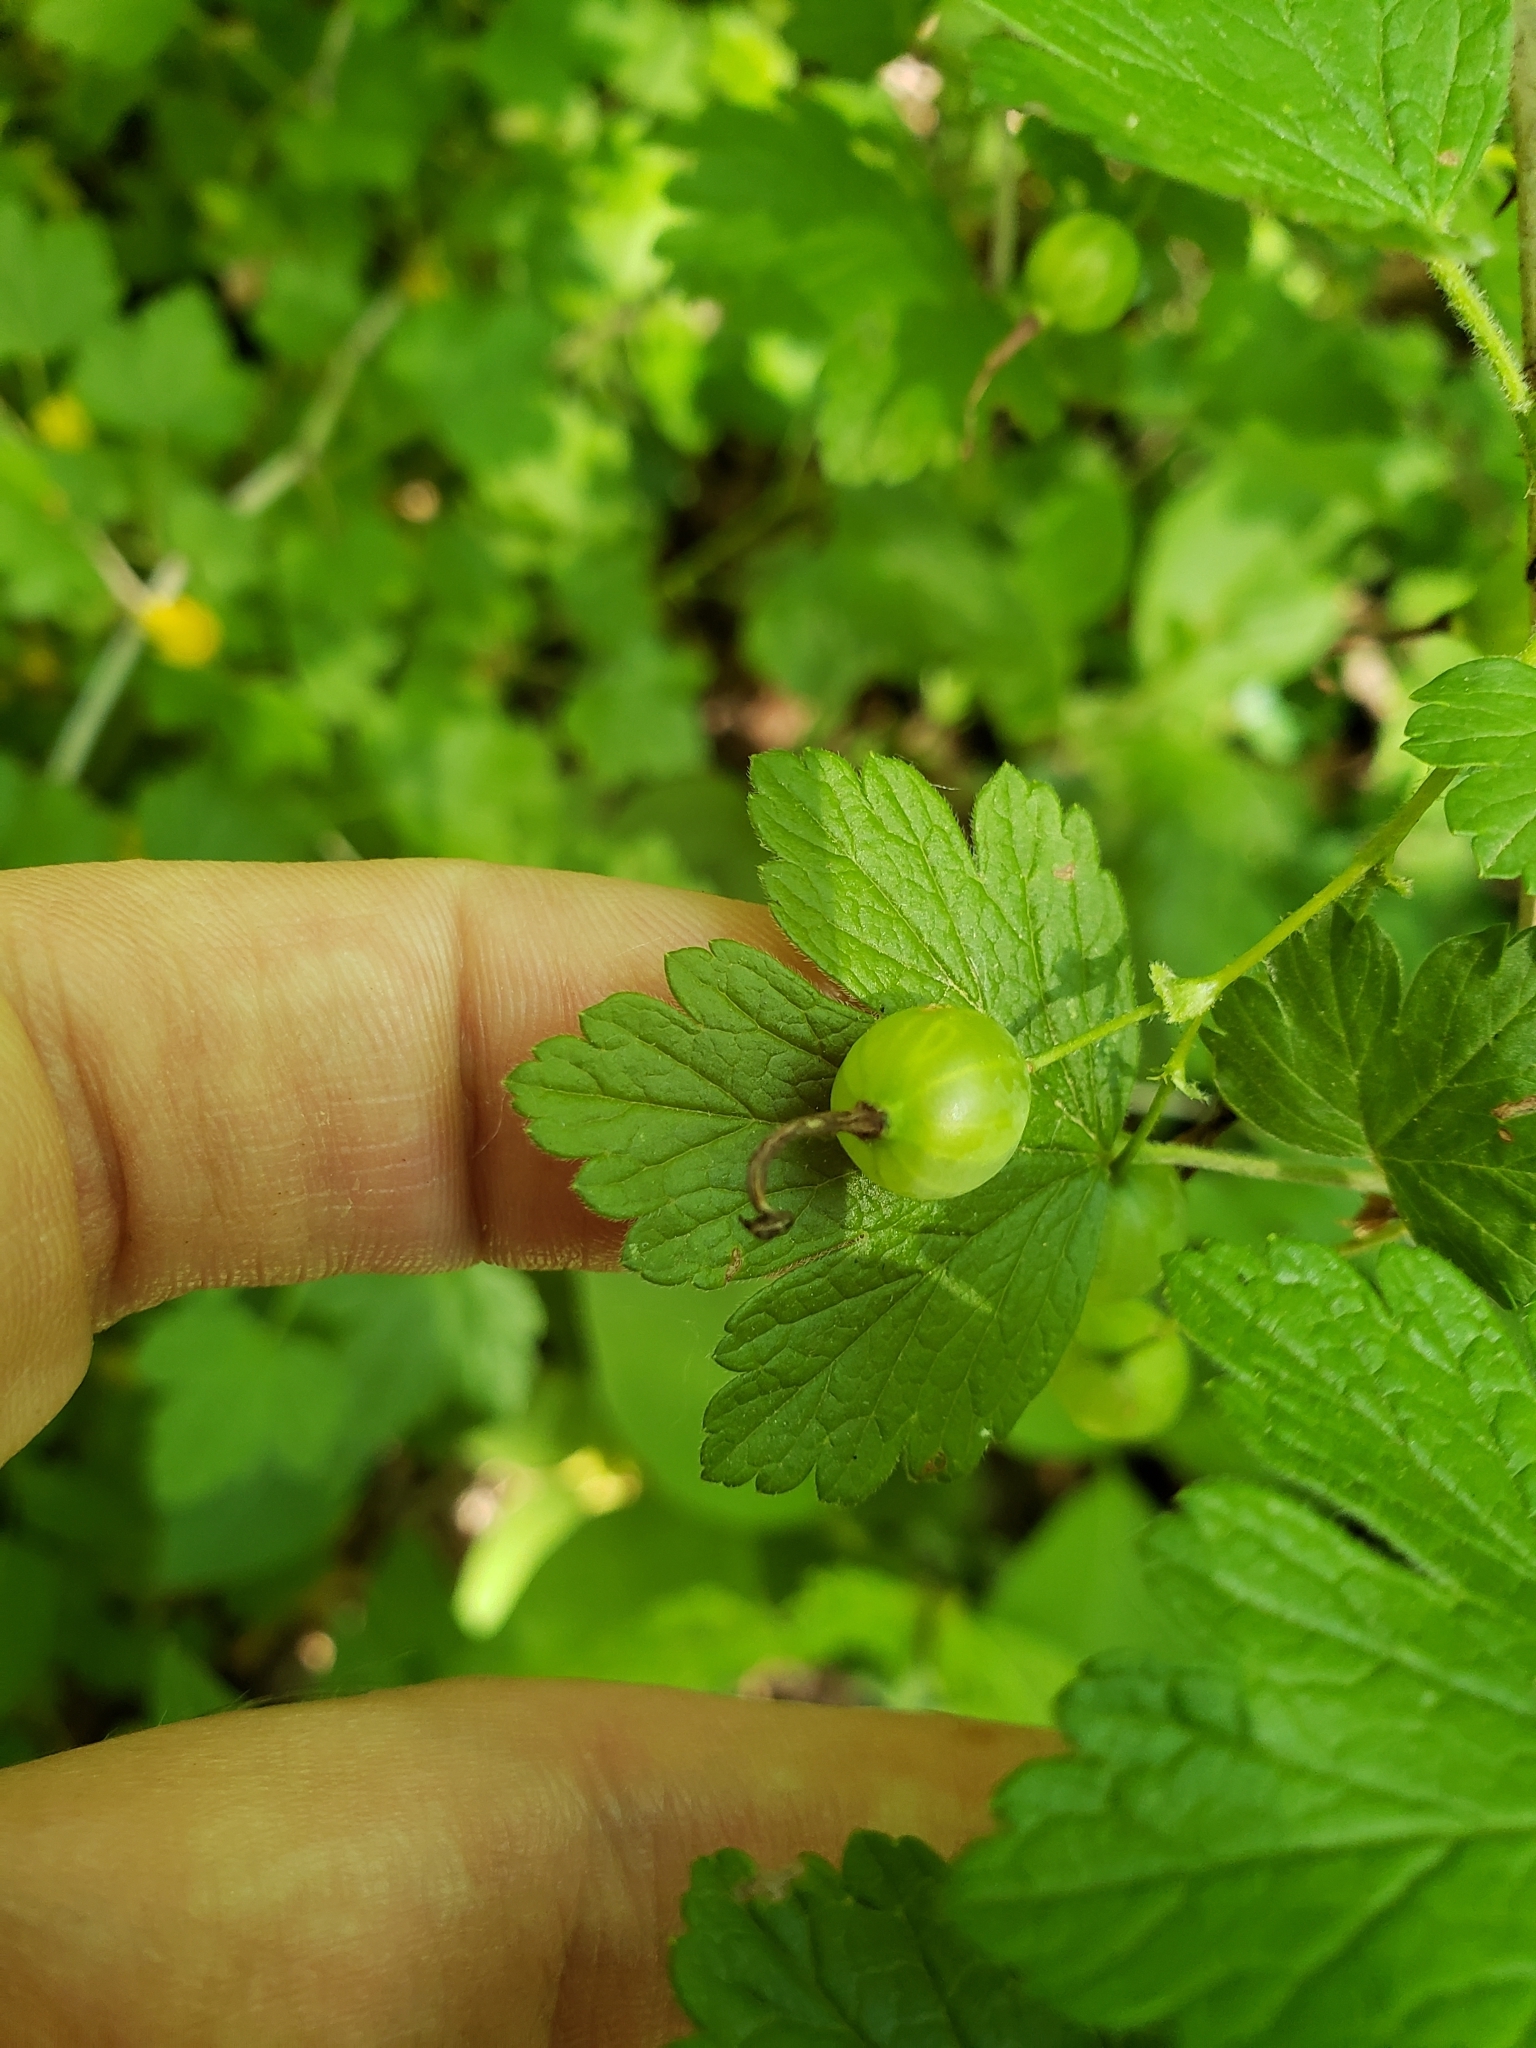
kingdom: Plantae
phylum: Tracheophyta
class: Magnoliopsida
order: Saxifragales
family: Grossulariaceae
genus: Ribes
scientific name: Ribes missouriense
